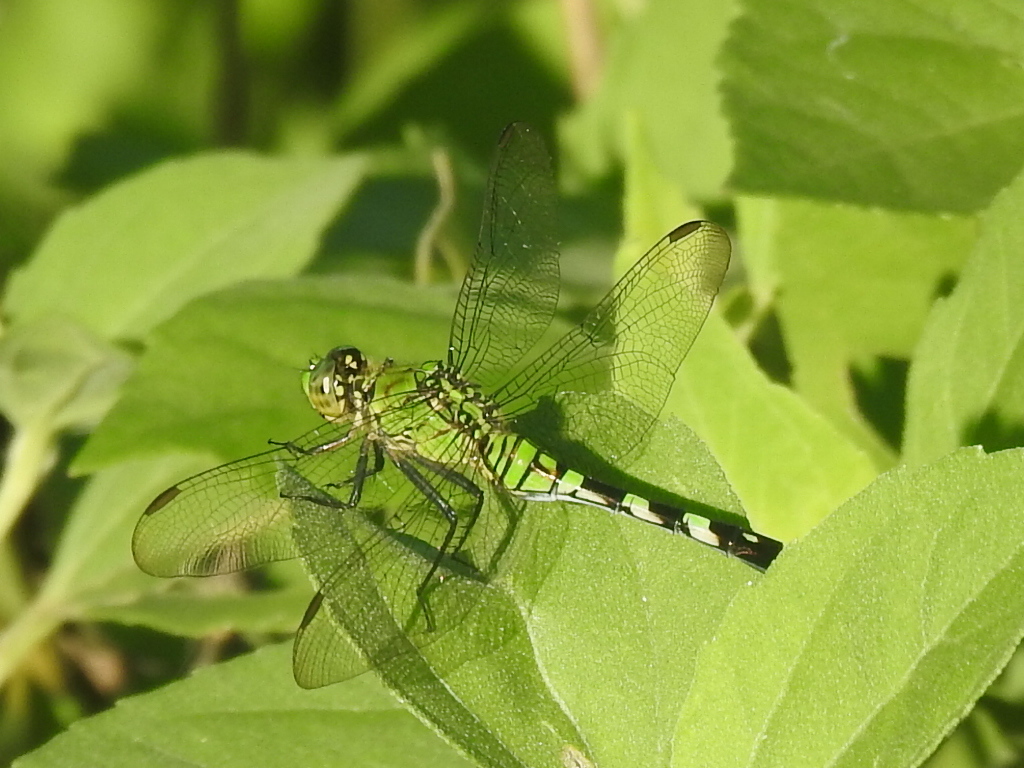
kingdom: Animalia
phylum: Arthropoda
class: Insecta
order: Odonata
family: Libellulidae
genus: Erythemis
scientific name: Erythemis simplicicollis
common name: Eastern pondhawk
